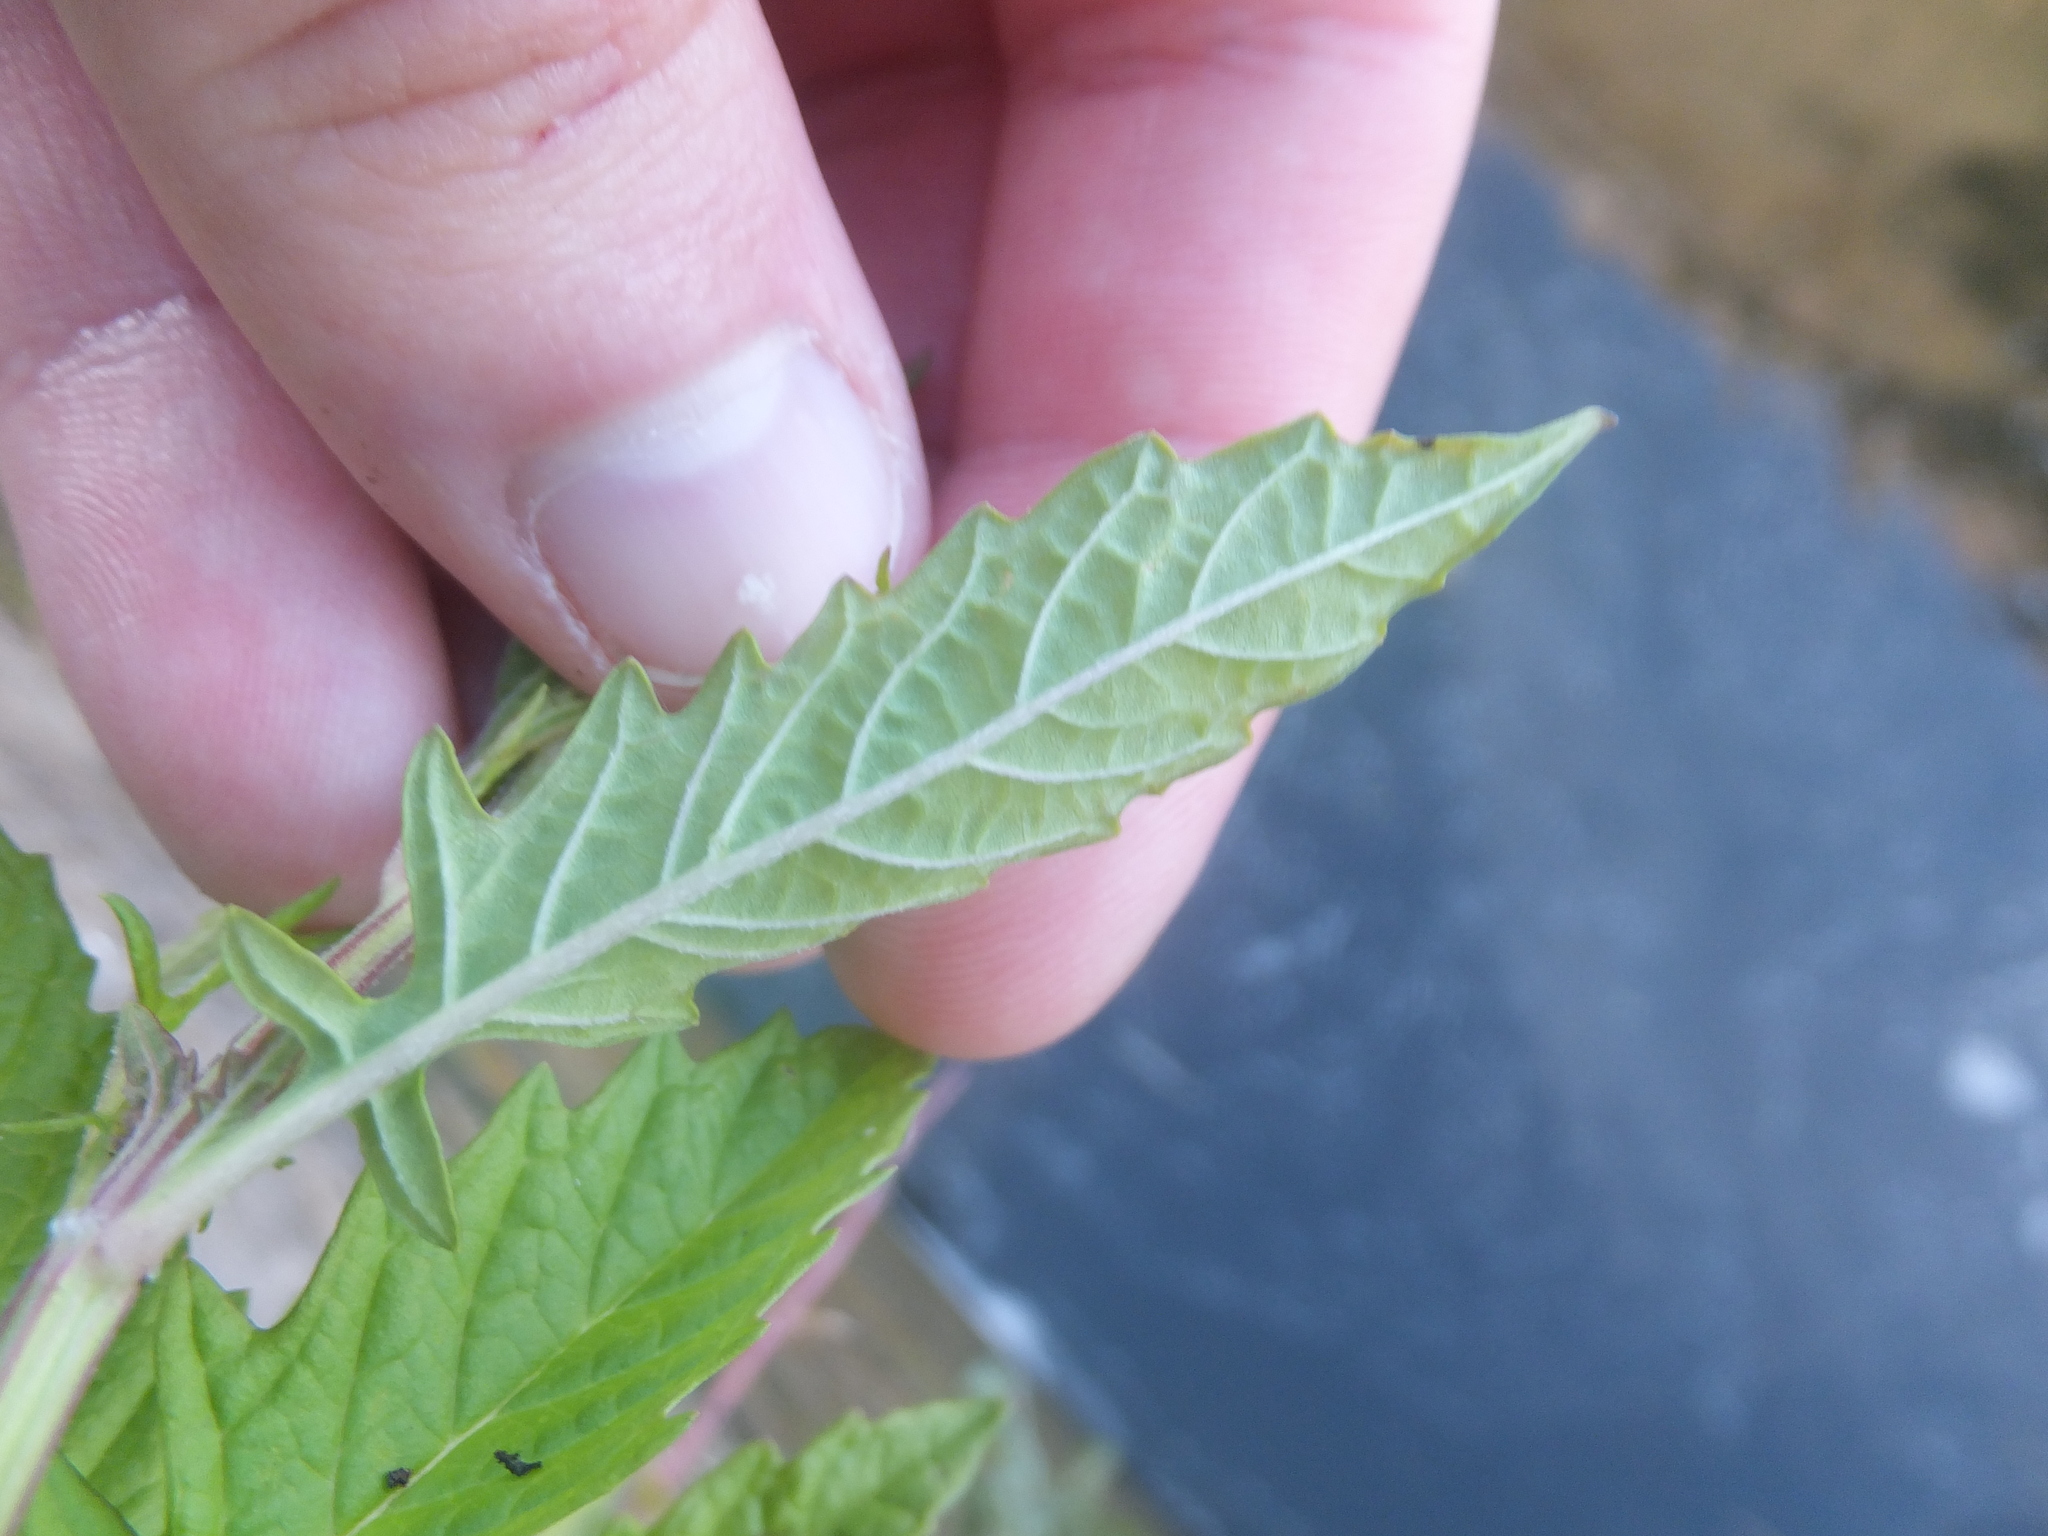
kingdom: Plantae
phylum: Tracheophyta
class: Magnoliopsida
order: Lamiales
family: Lamiaceae
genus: Lycopus
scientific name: Lycopus europaeus
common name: European bugleweed
